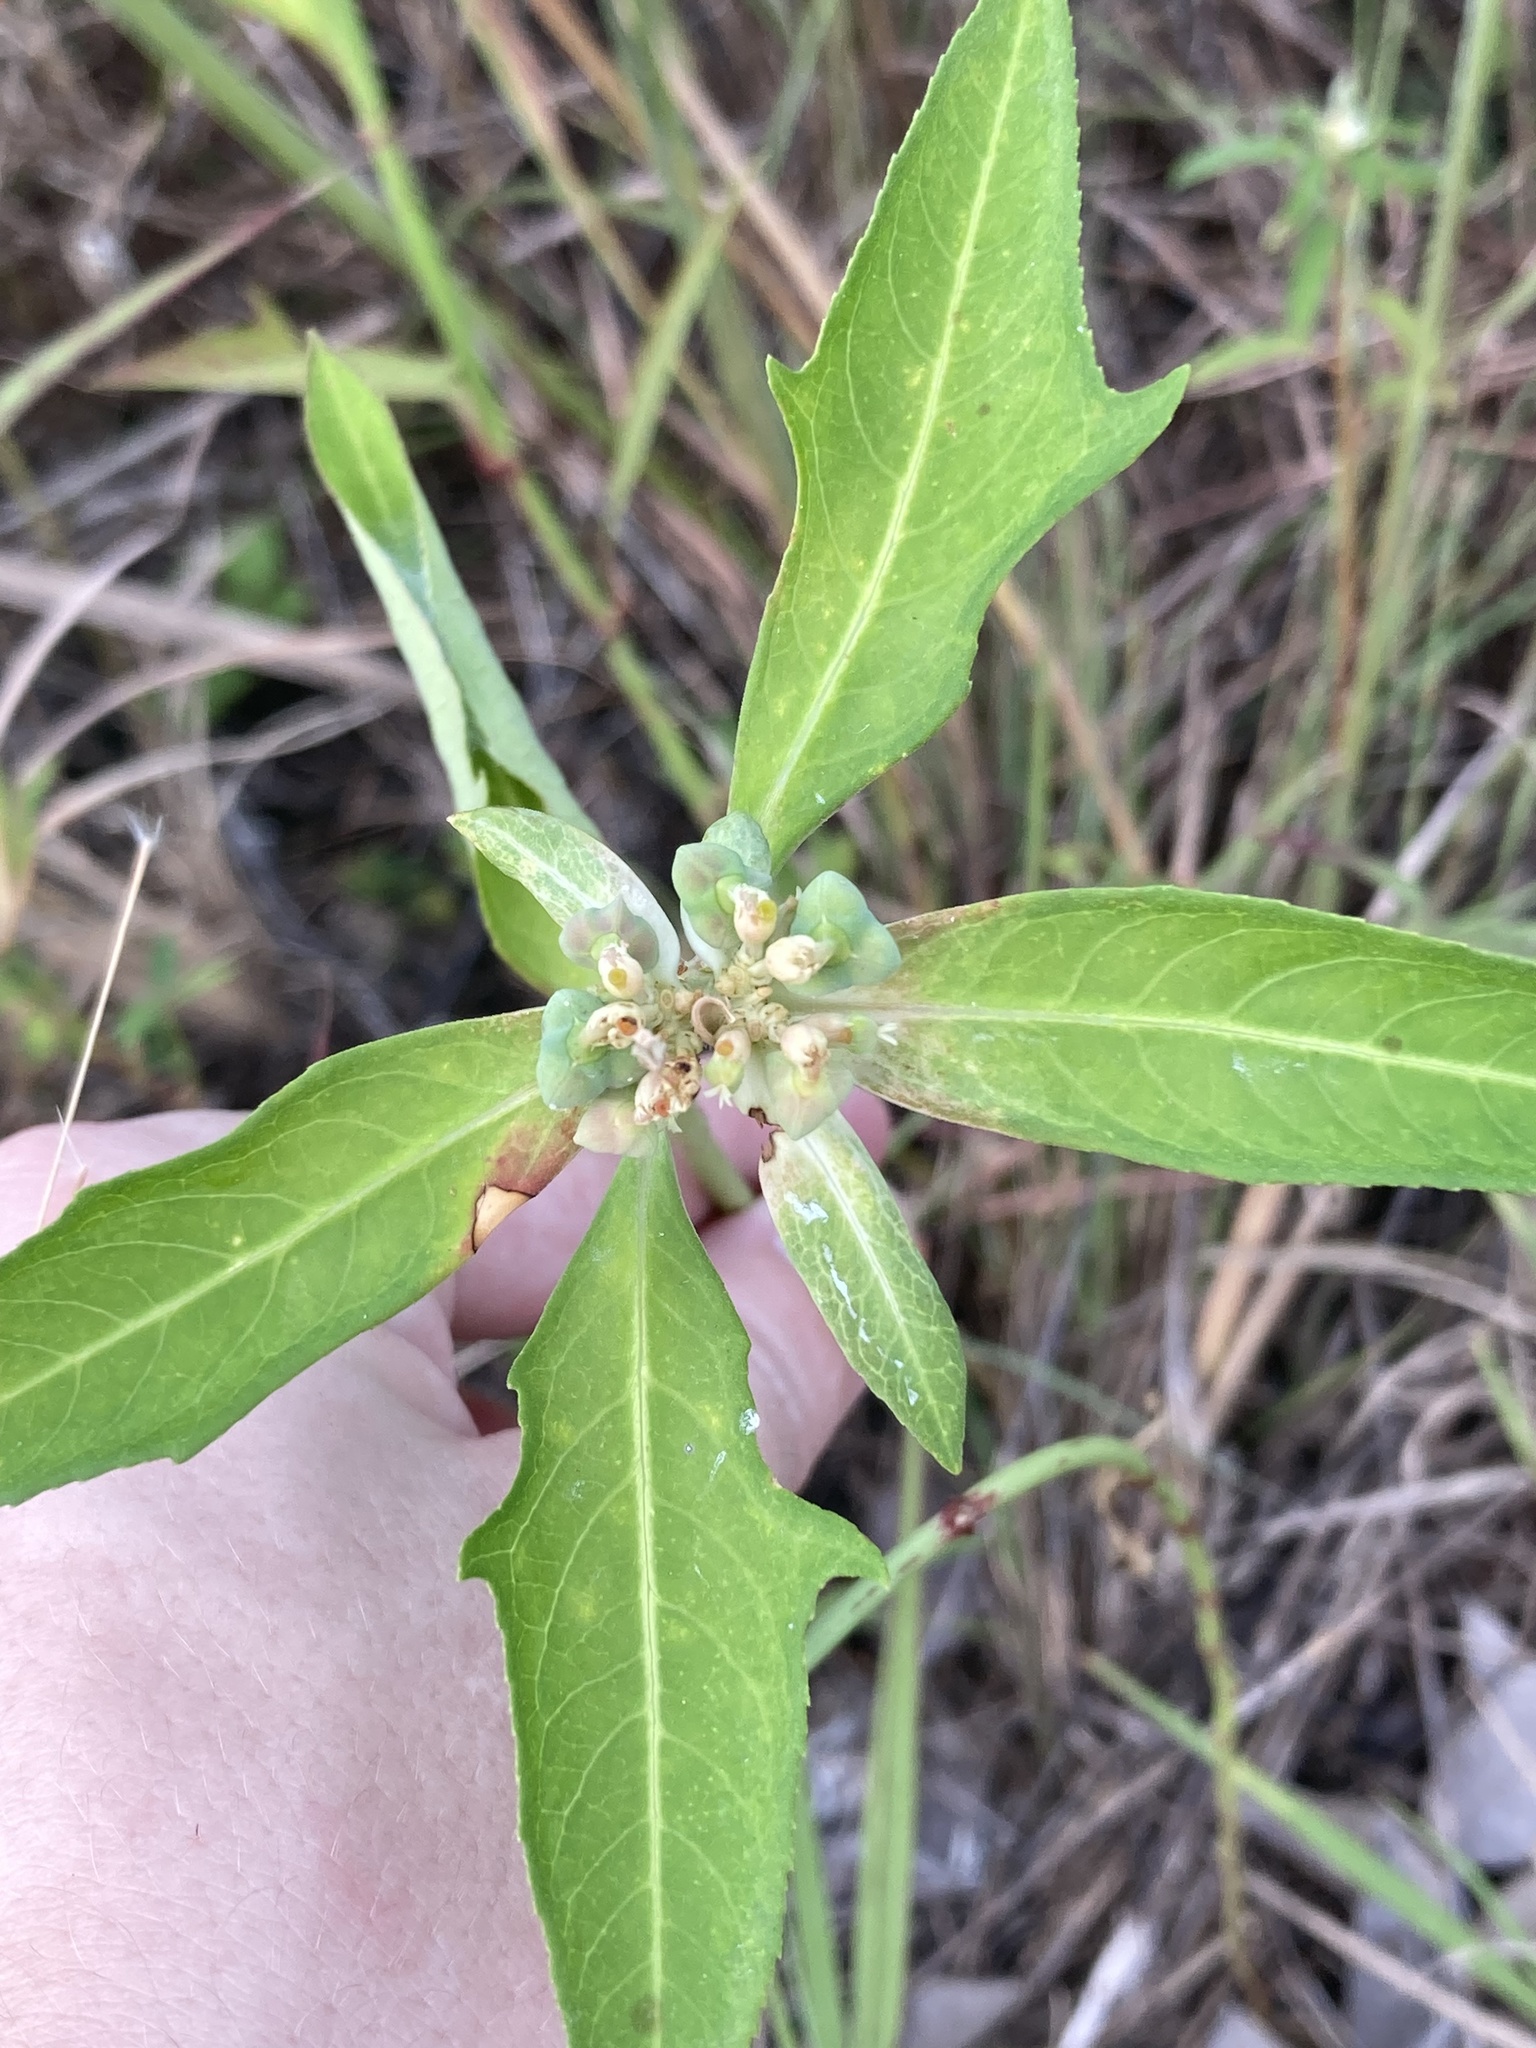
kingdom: Plantae
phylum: Tracheophyta
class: Magnoliopsida
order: Malpighiales
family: Euphorbiaceae
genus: Euphorbia
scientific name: Euphorbia heterophylla
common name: Mexican fireplant
